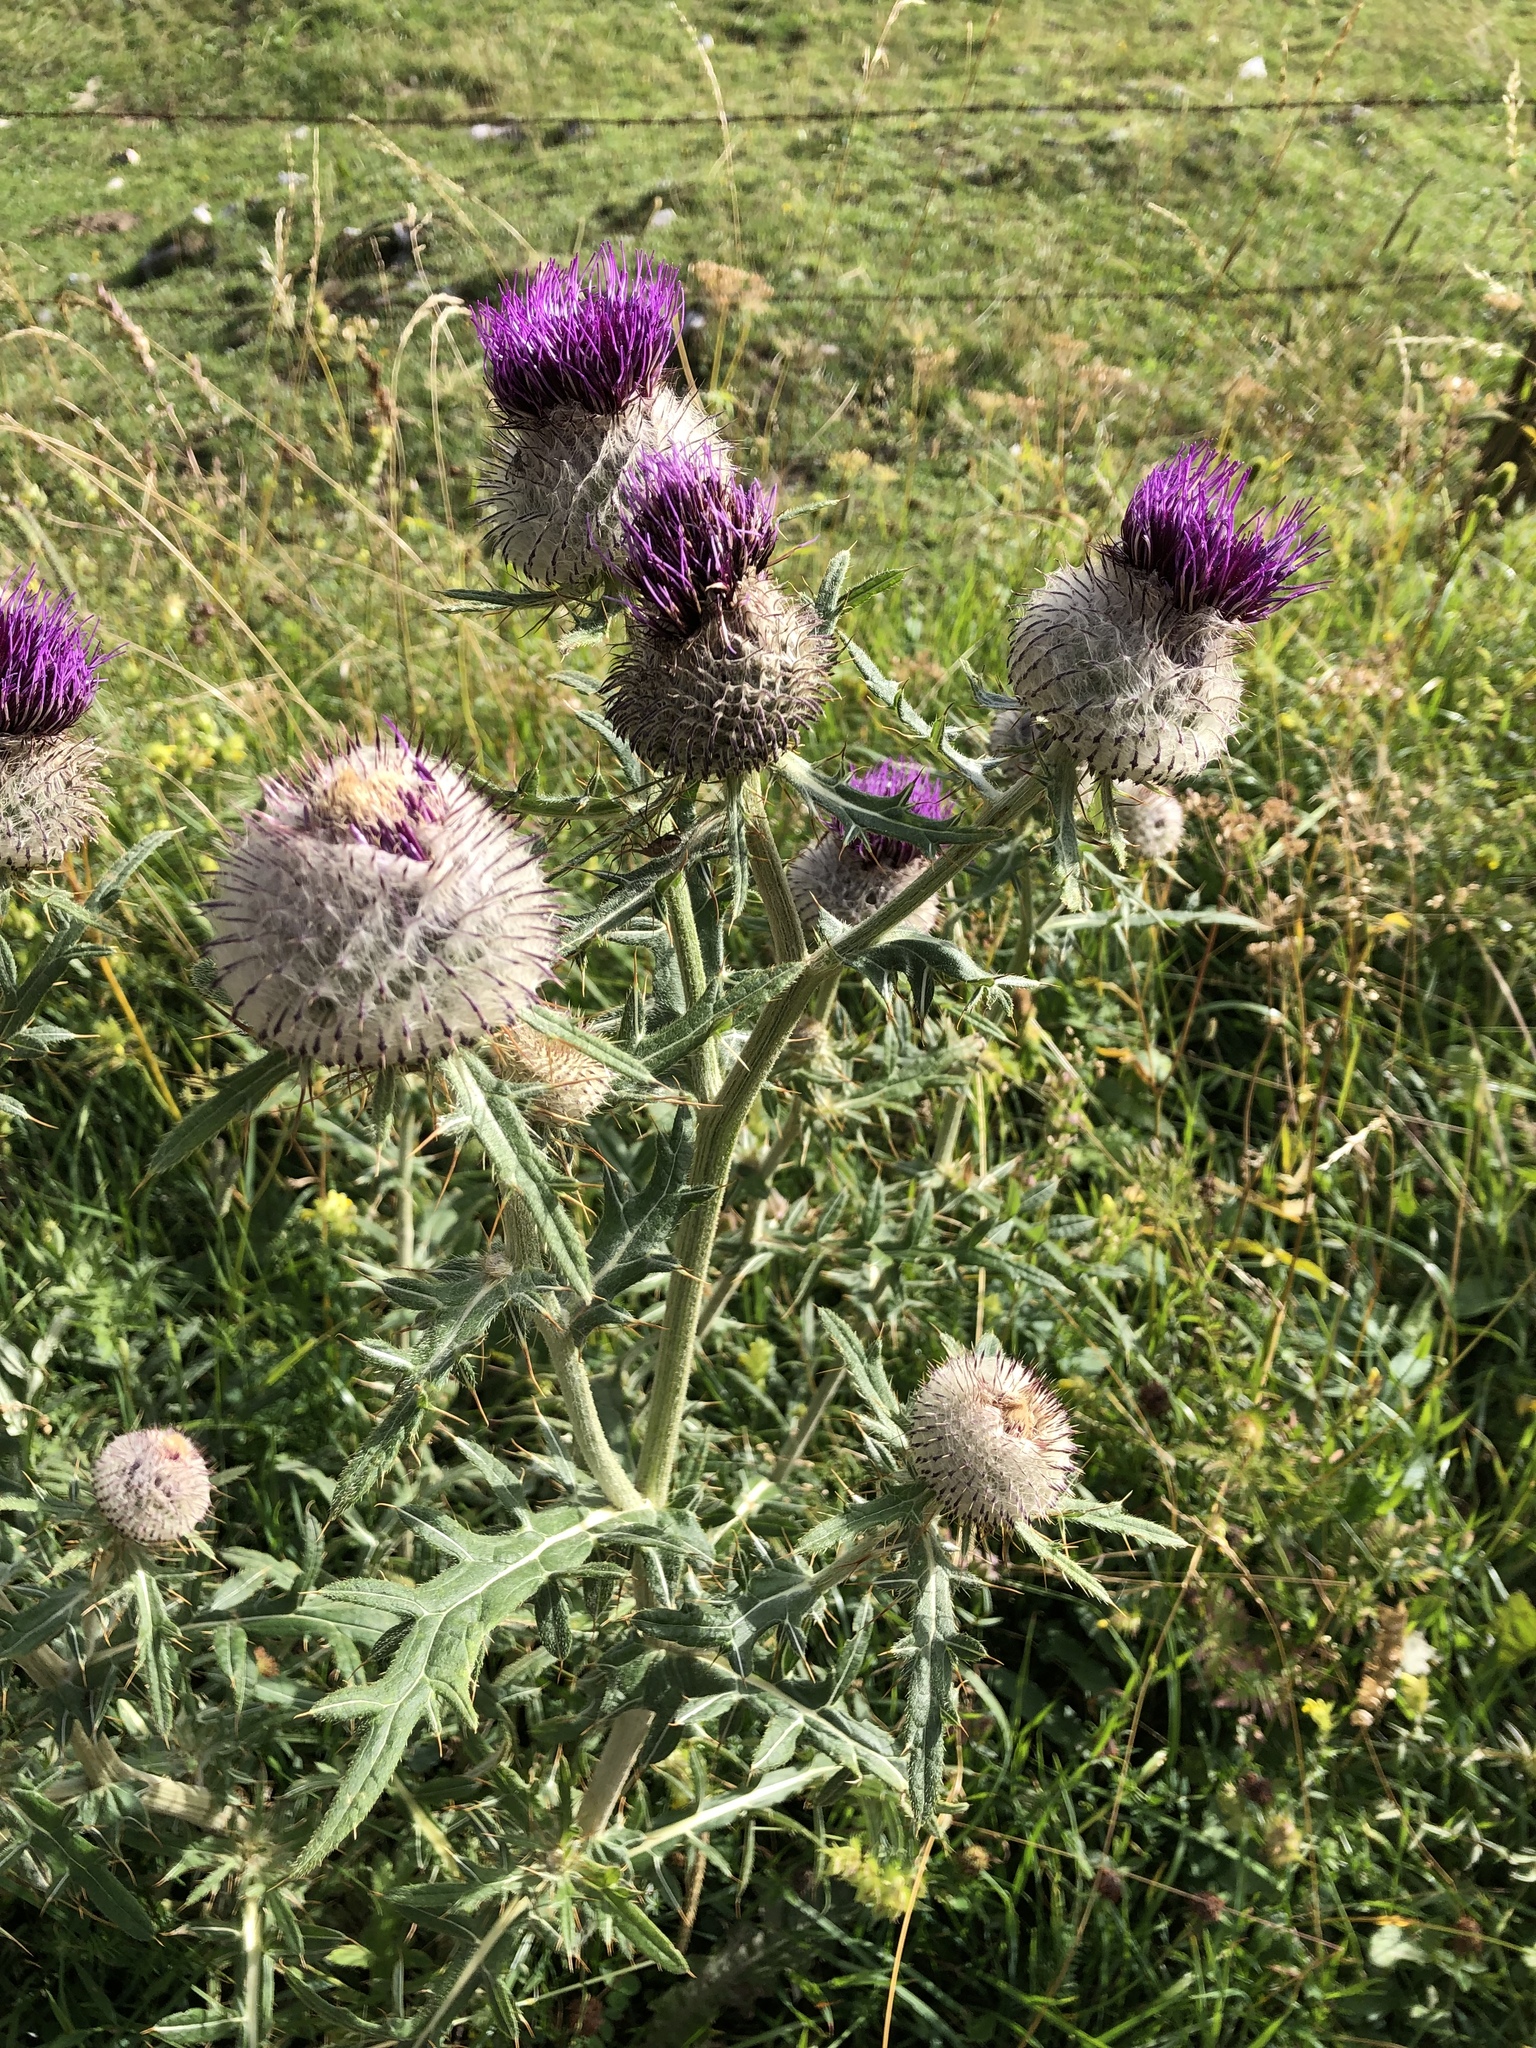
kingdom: Plantae
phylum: Tracheophyta
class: Magnoliopsida
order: Asterales
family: Asteraceae
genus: Lophiolepis
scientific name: Lophiolepis eriophora
